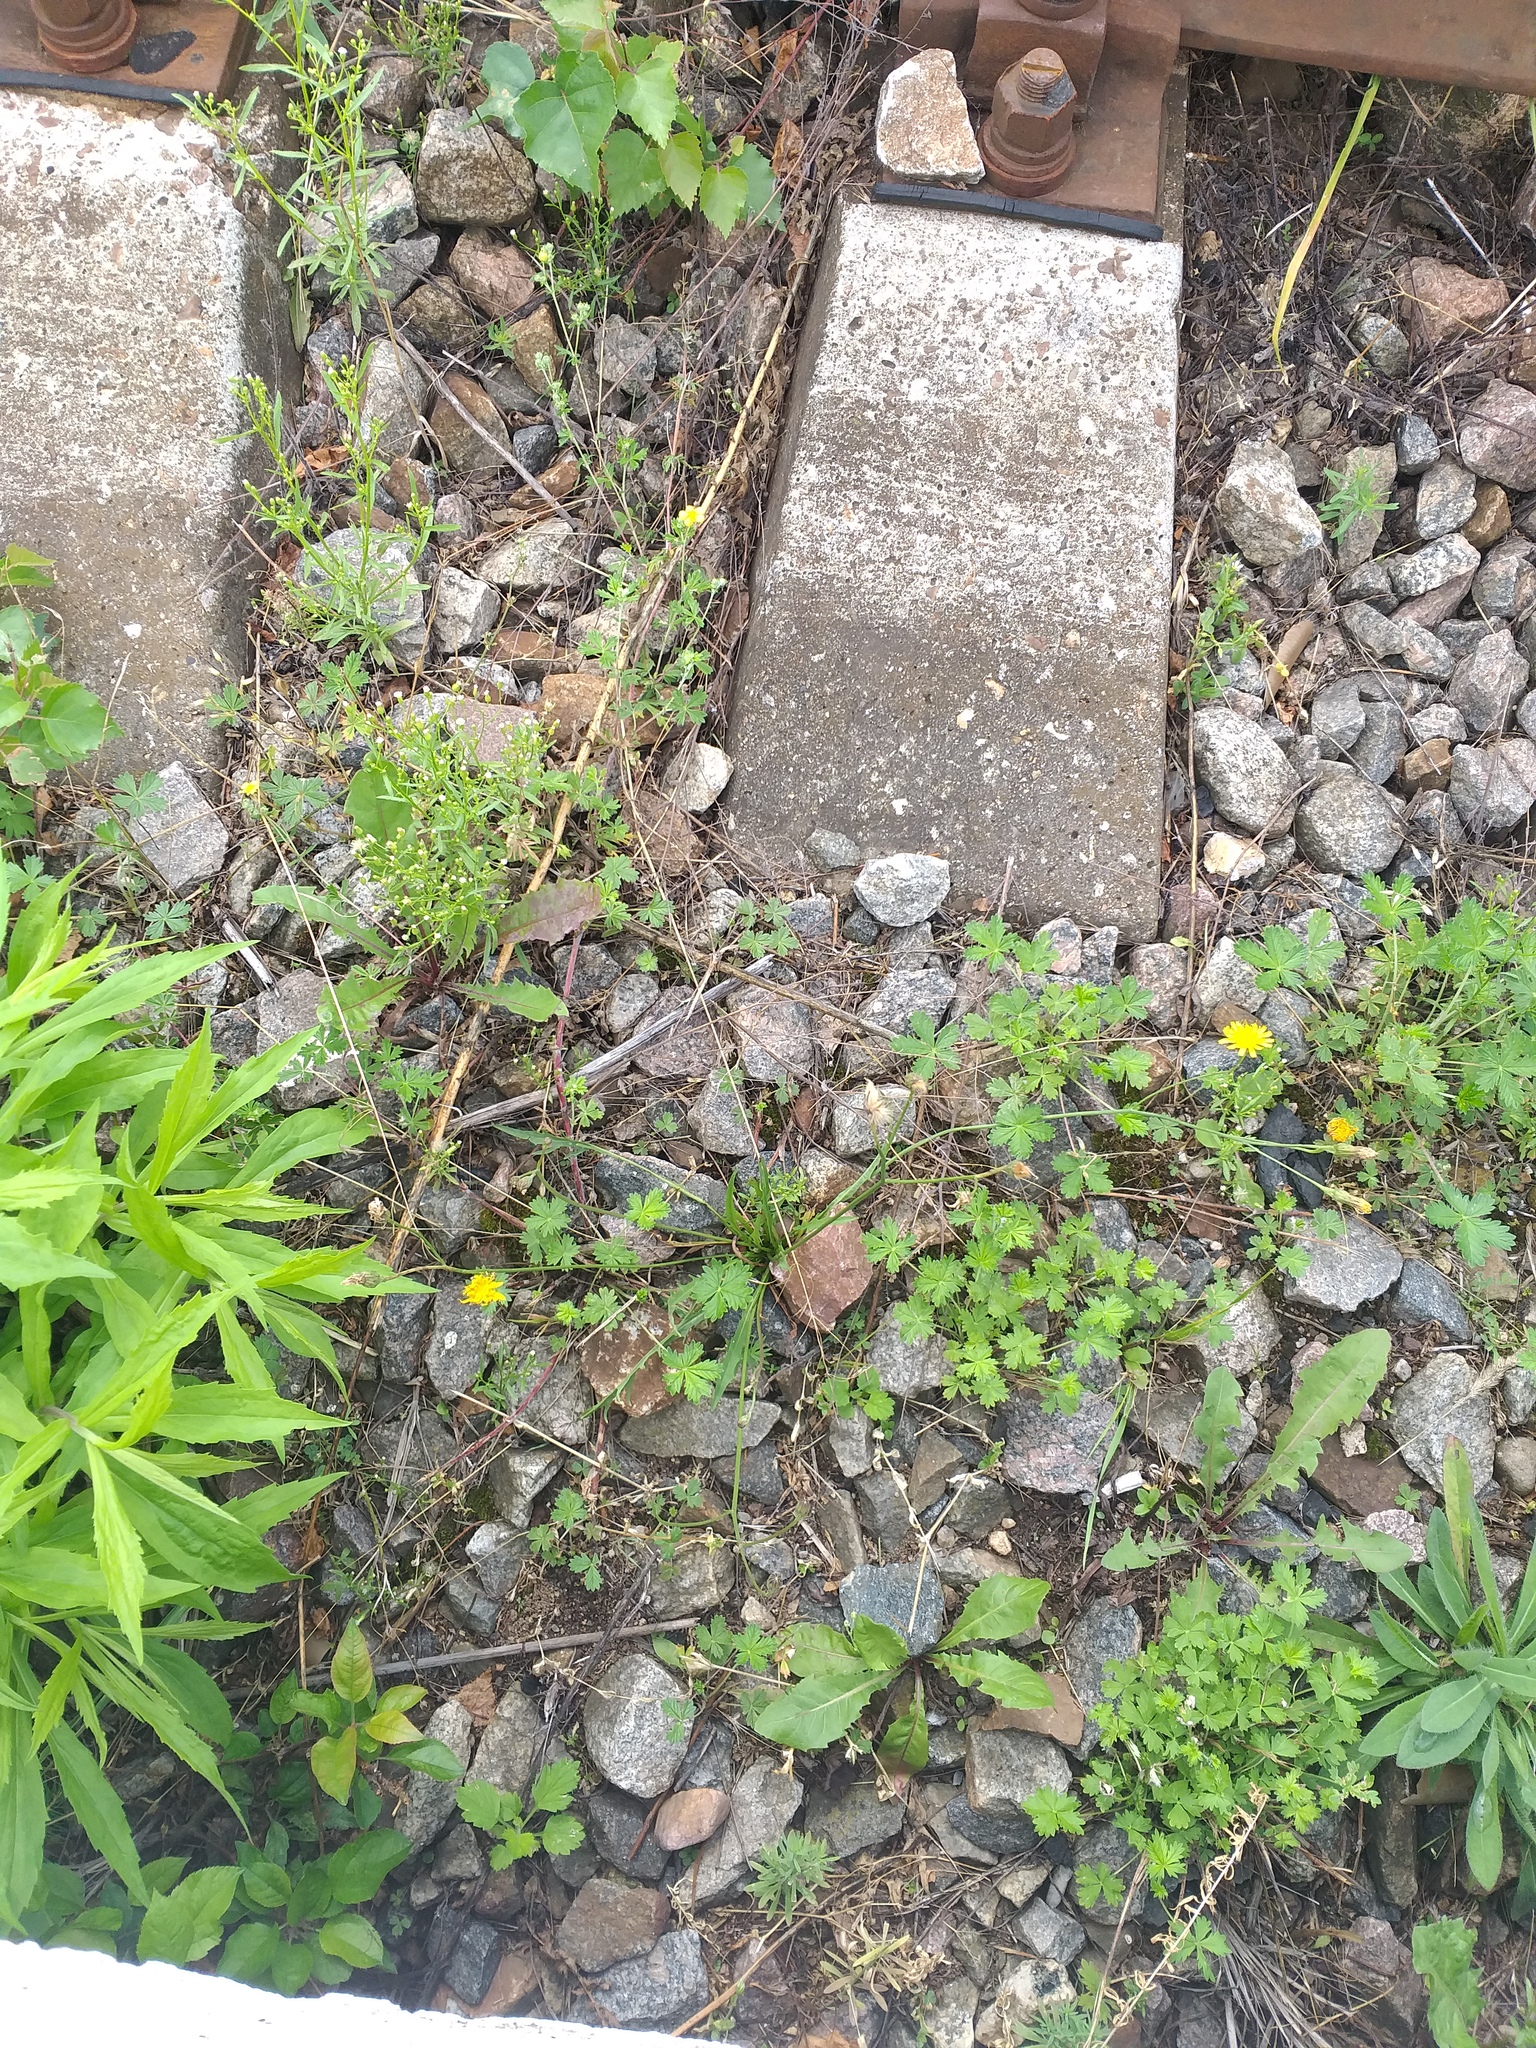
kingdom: Plantae
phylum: Tracheophyta
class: Magnoliopsida
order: Asterales
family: Asteraceae
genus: Scorzoneroides
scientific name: Scorzoneroides autumnalis
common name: Autumn hawkbit
